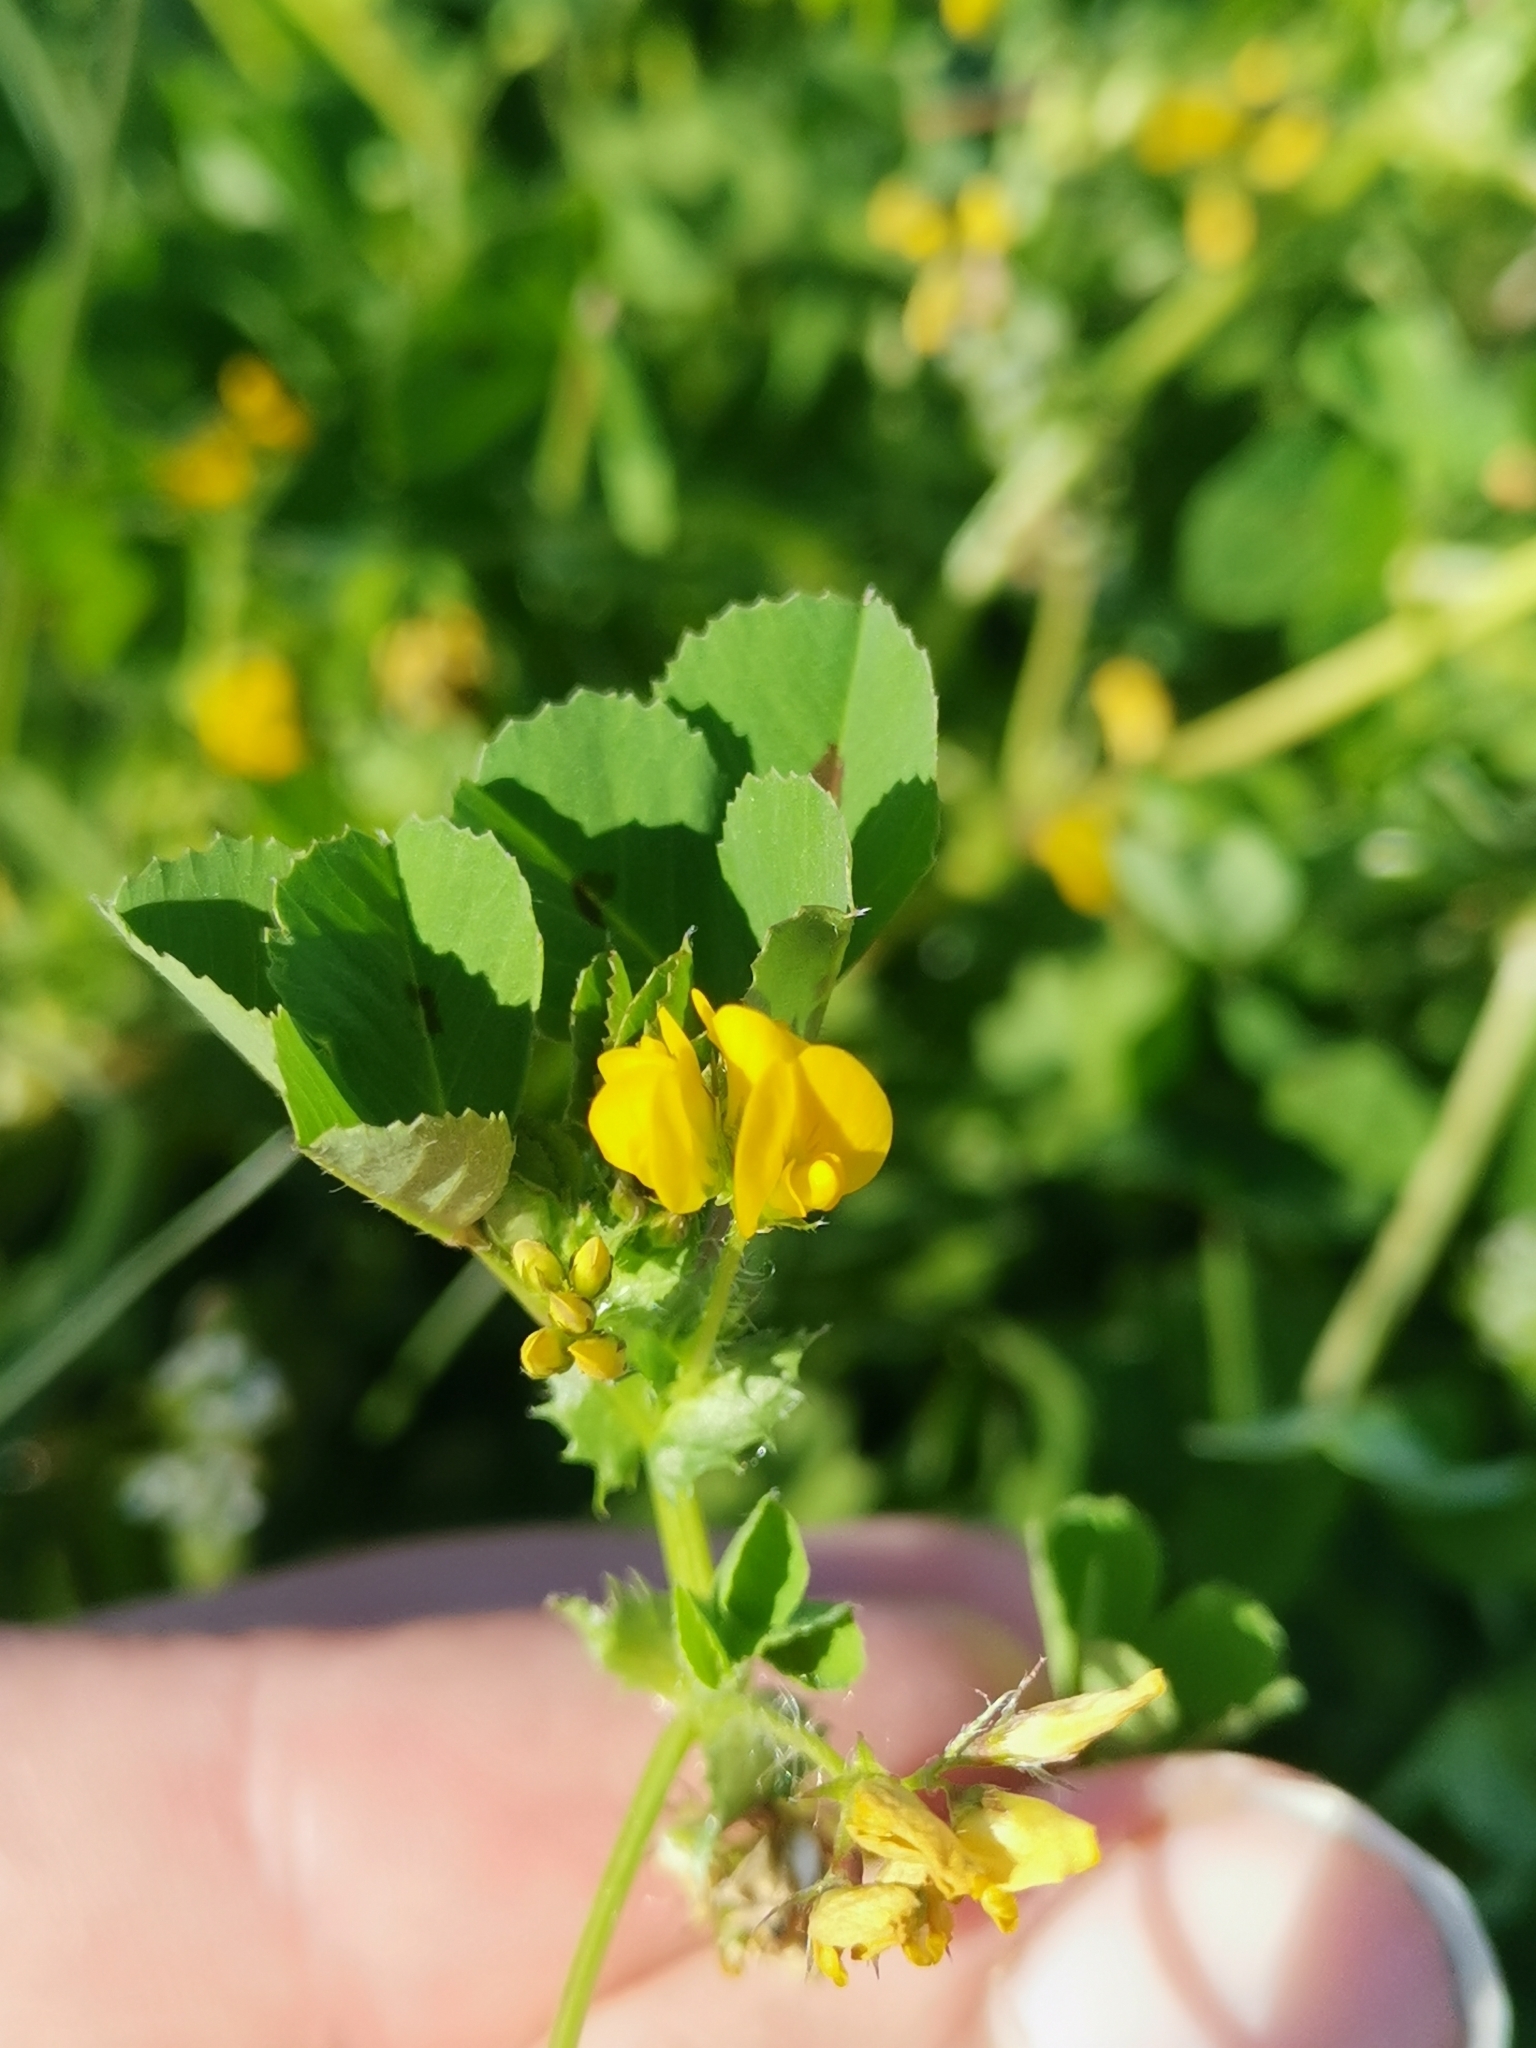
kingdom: Plantae
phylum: Tracheophyta
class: Magnoliopsida
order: Fabales
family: Fabaceae
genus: Medicago
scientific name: Medicago arabica
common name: Spotted medick
